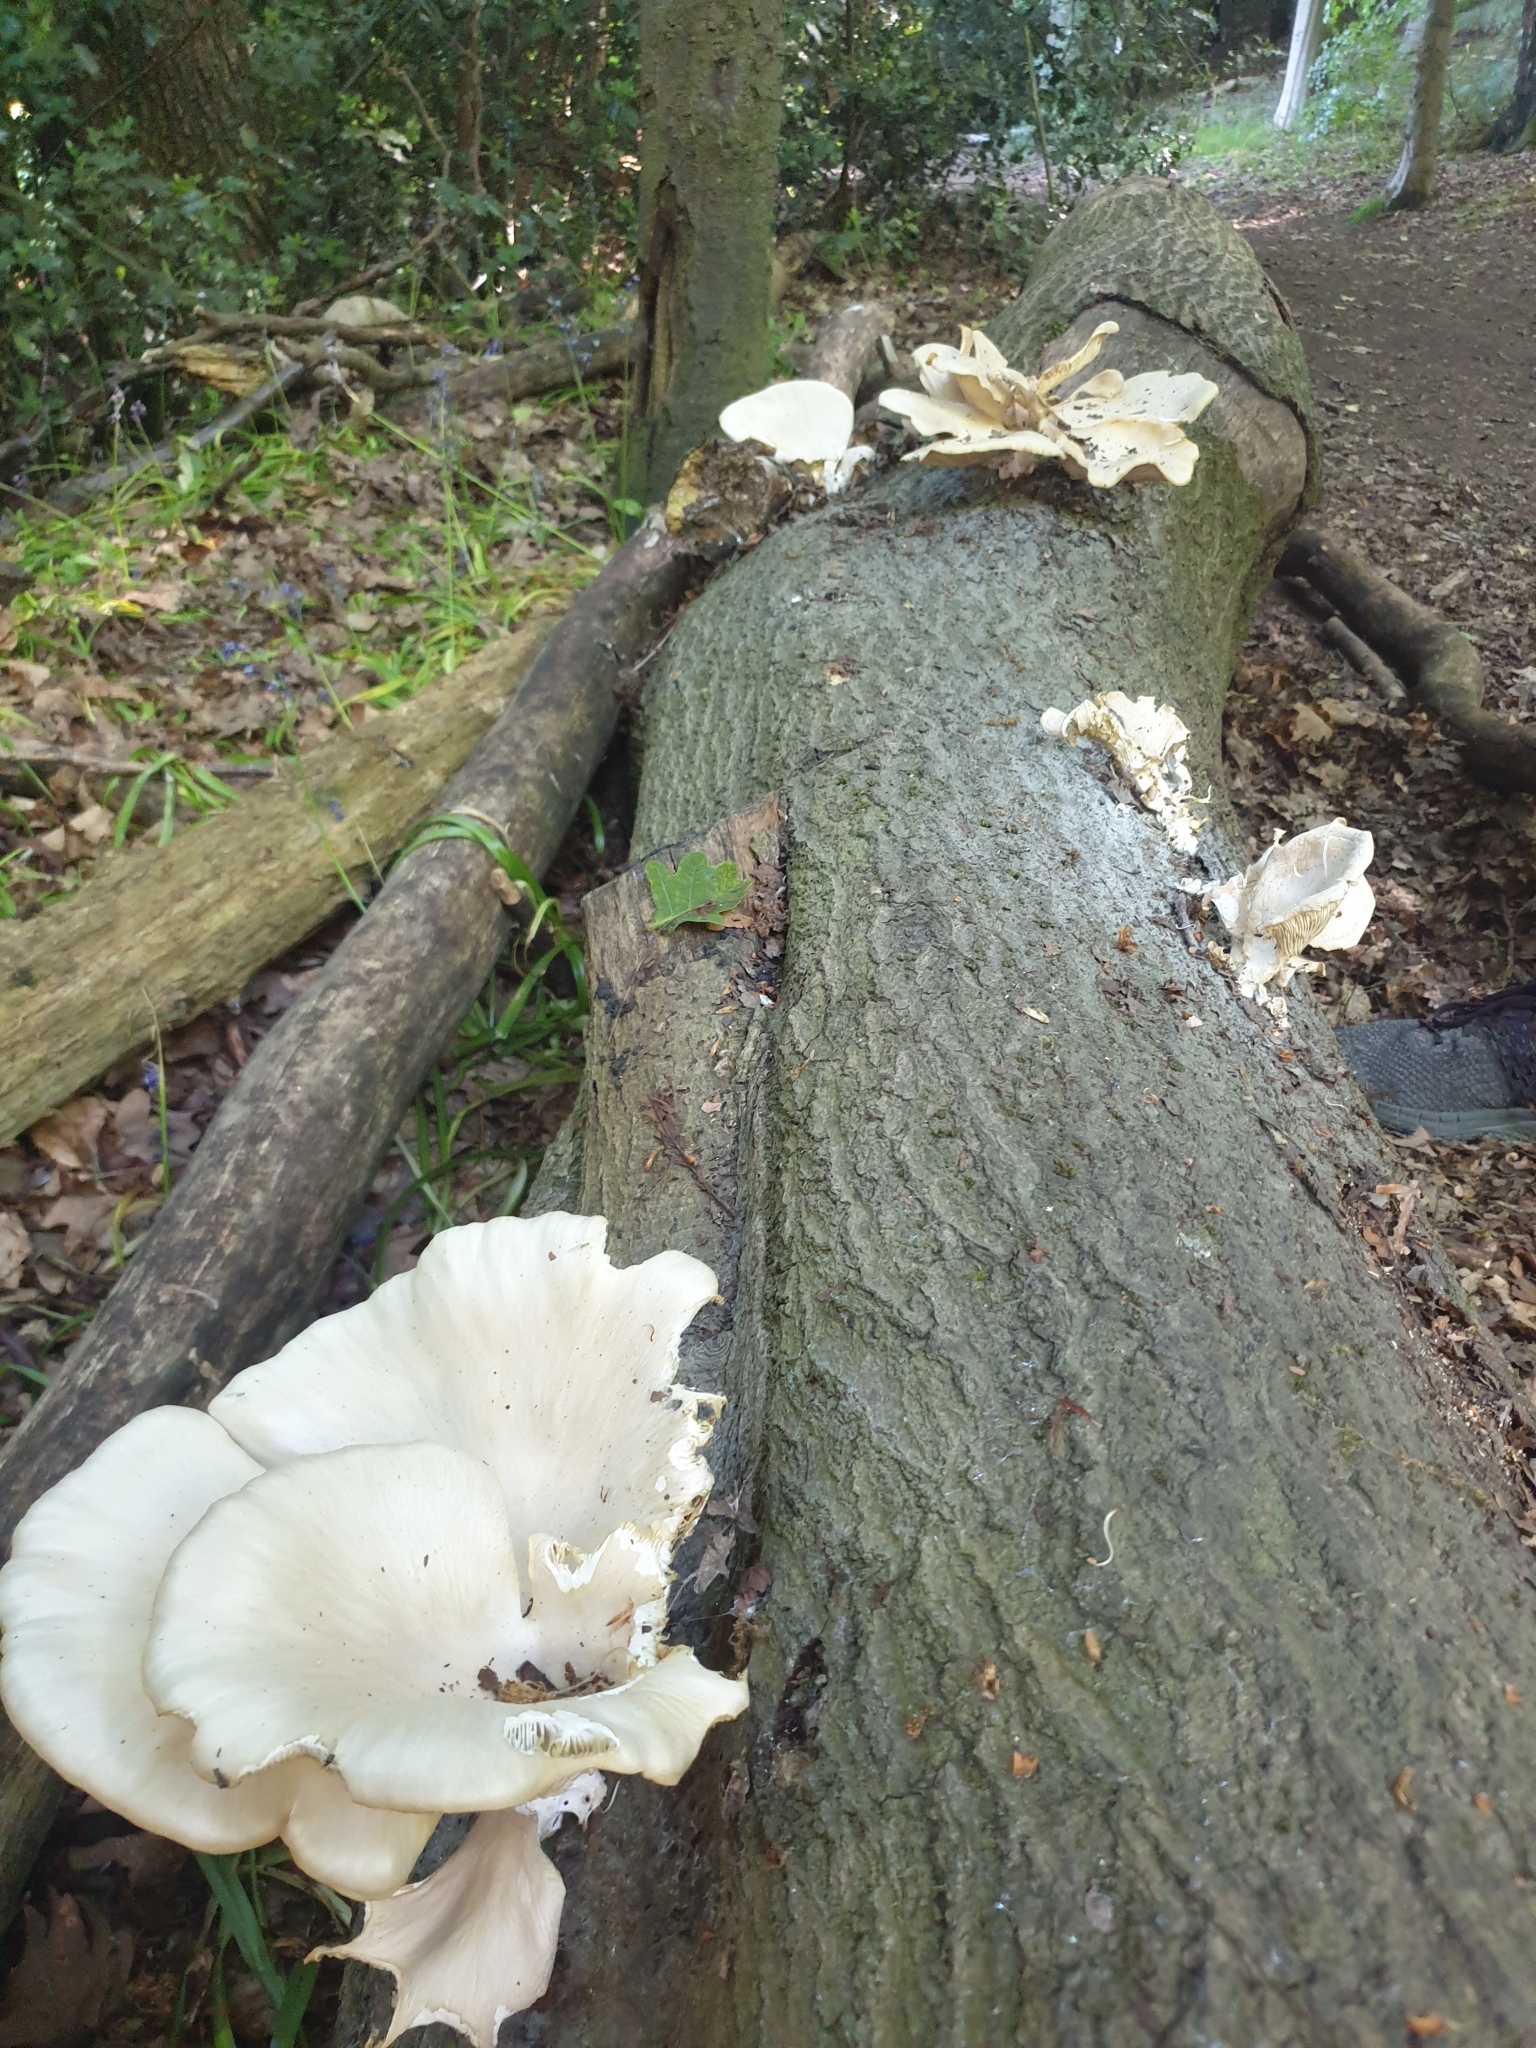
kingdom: Fungi
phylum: Basidiomycota
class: Agaricomycetes
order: Agaricales
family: Pleurotaceae
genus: Pleurotus
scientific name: Pleurotus pulmonarius
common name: Pale oyster
